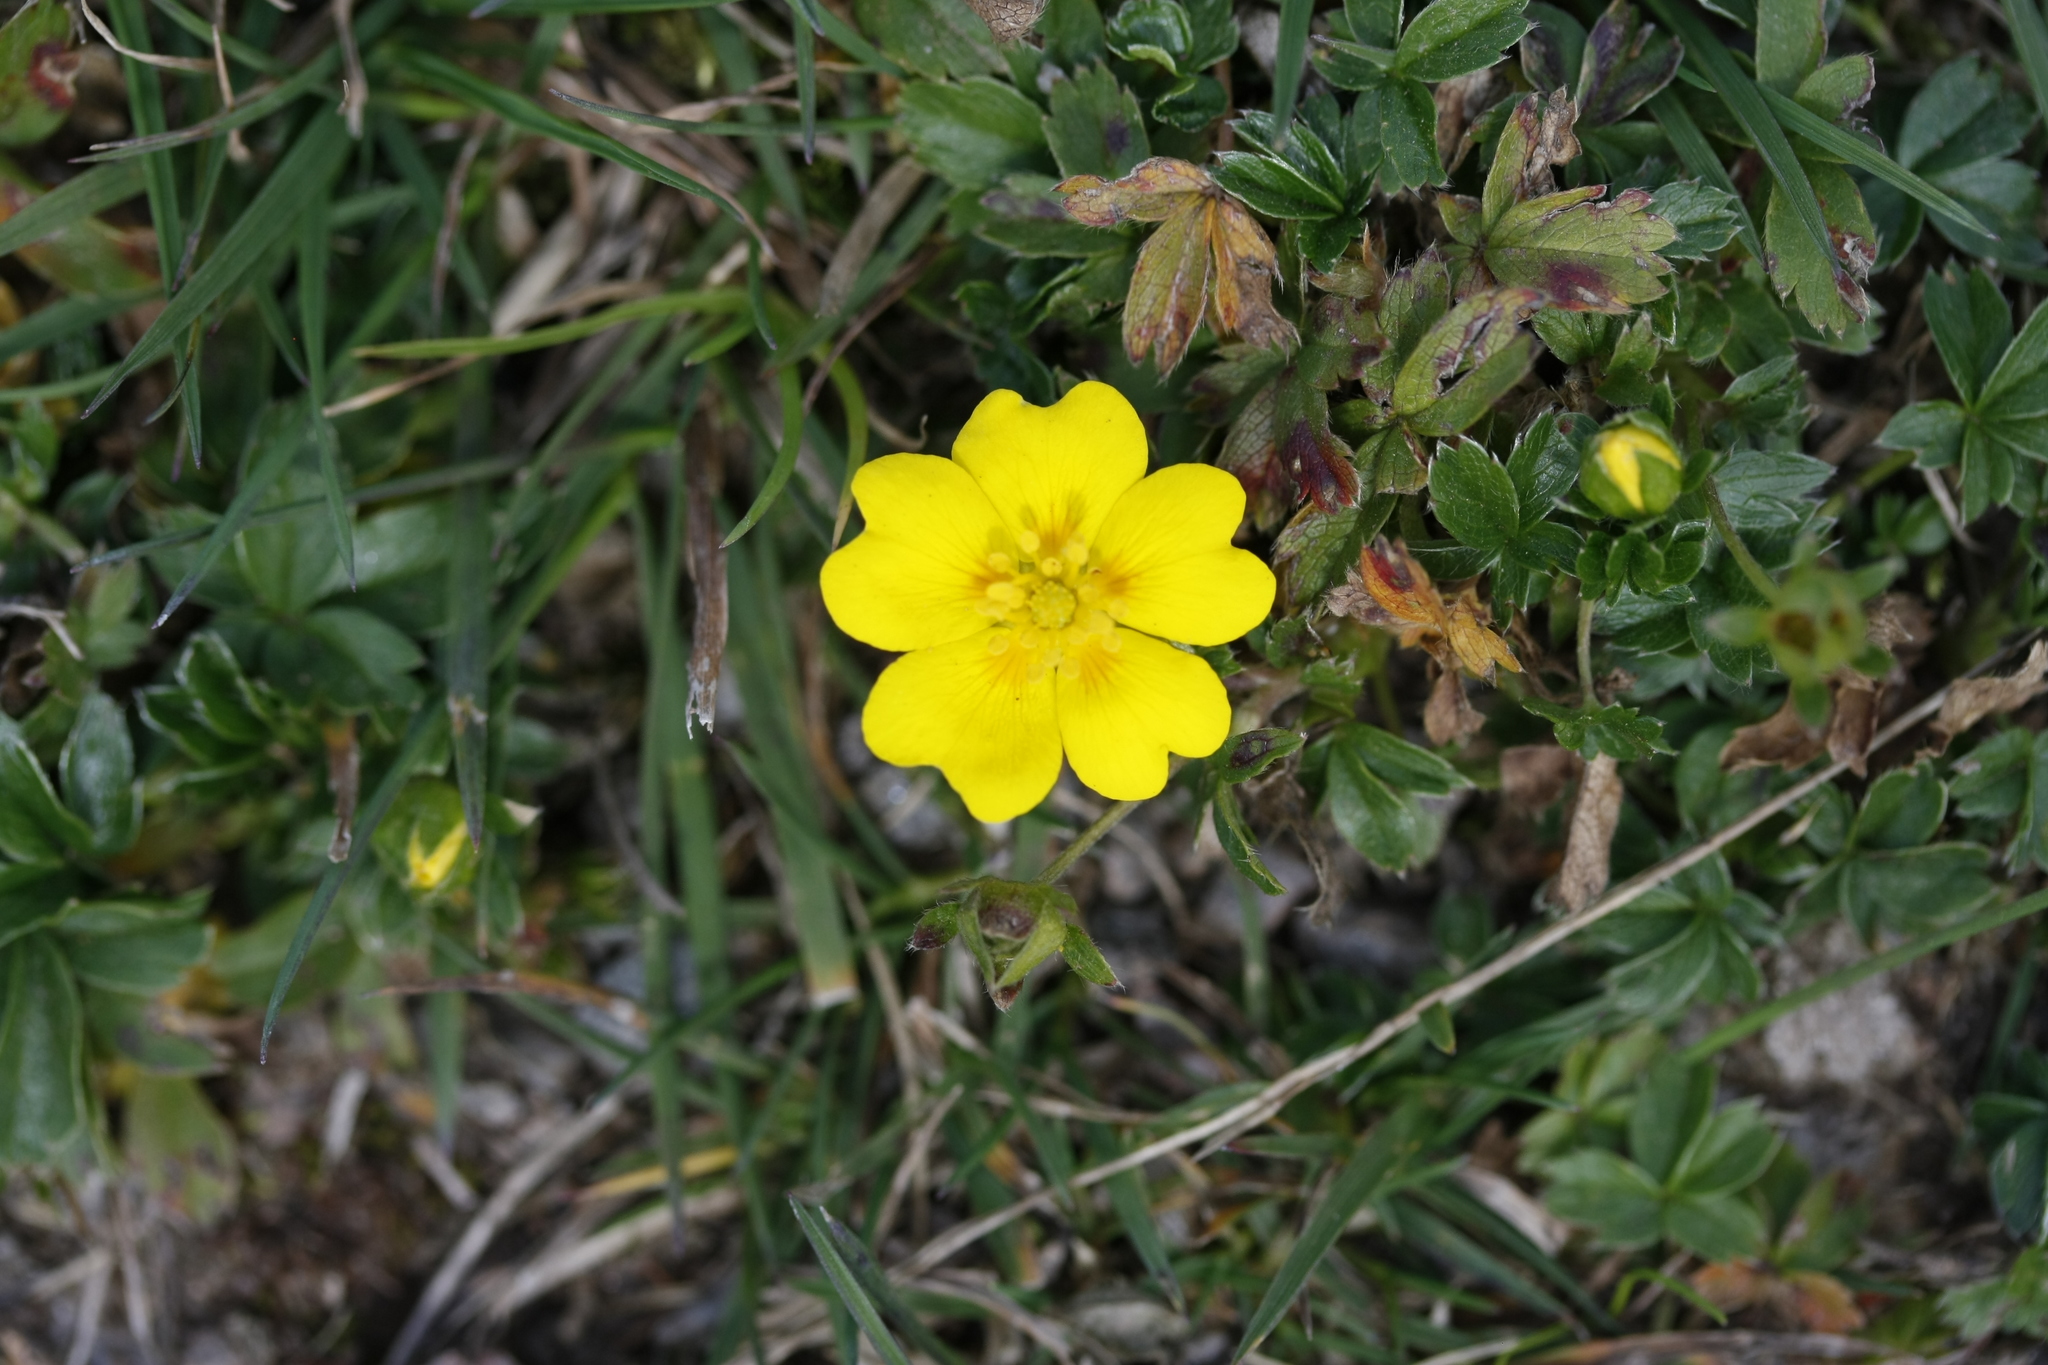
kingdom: Plantae
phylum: Tracheophyta
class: Magnoliopsida
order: Rosales
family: Rosaceae
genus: Potentilla
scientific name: Potentilla aurea
